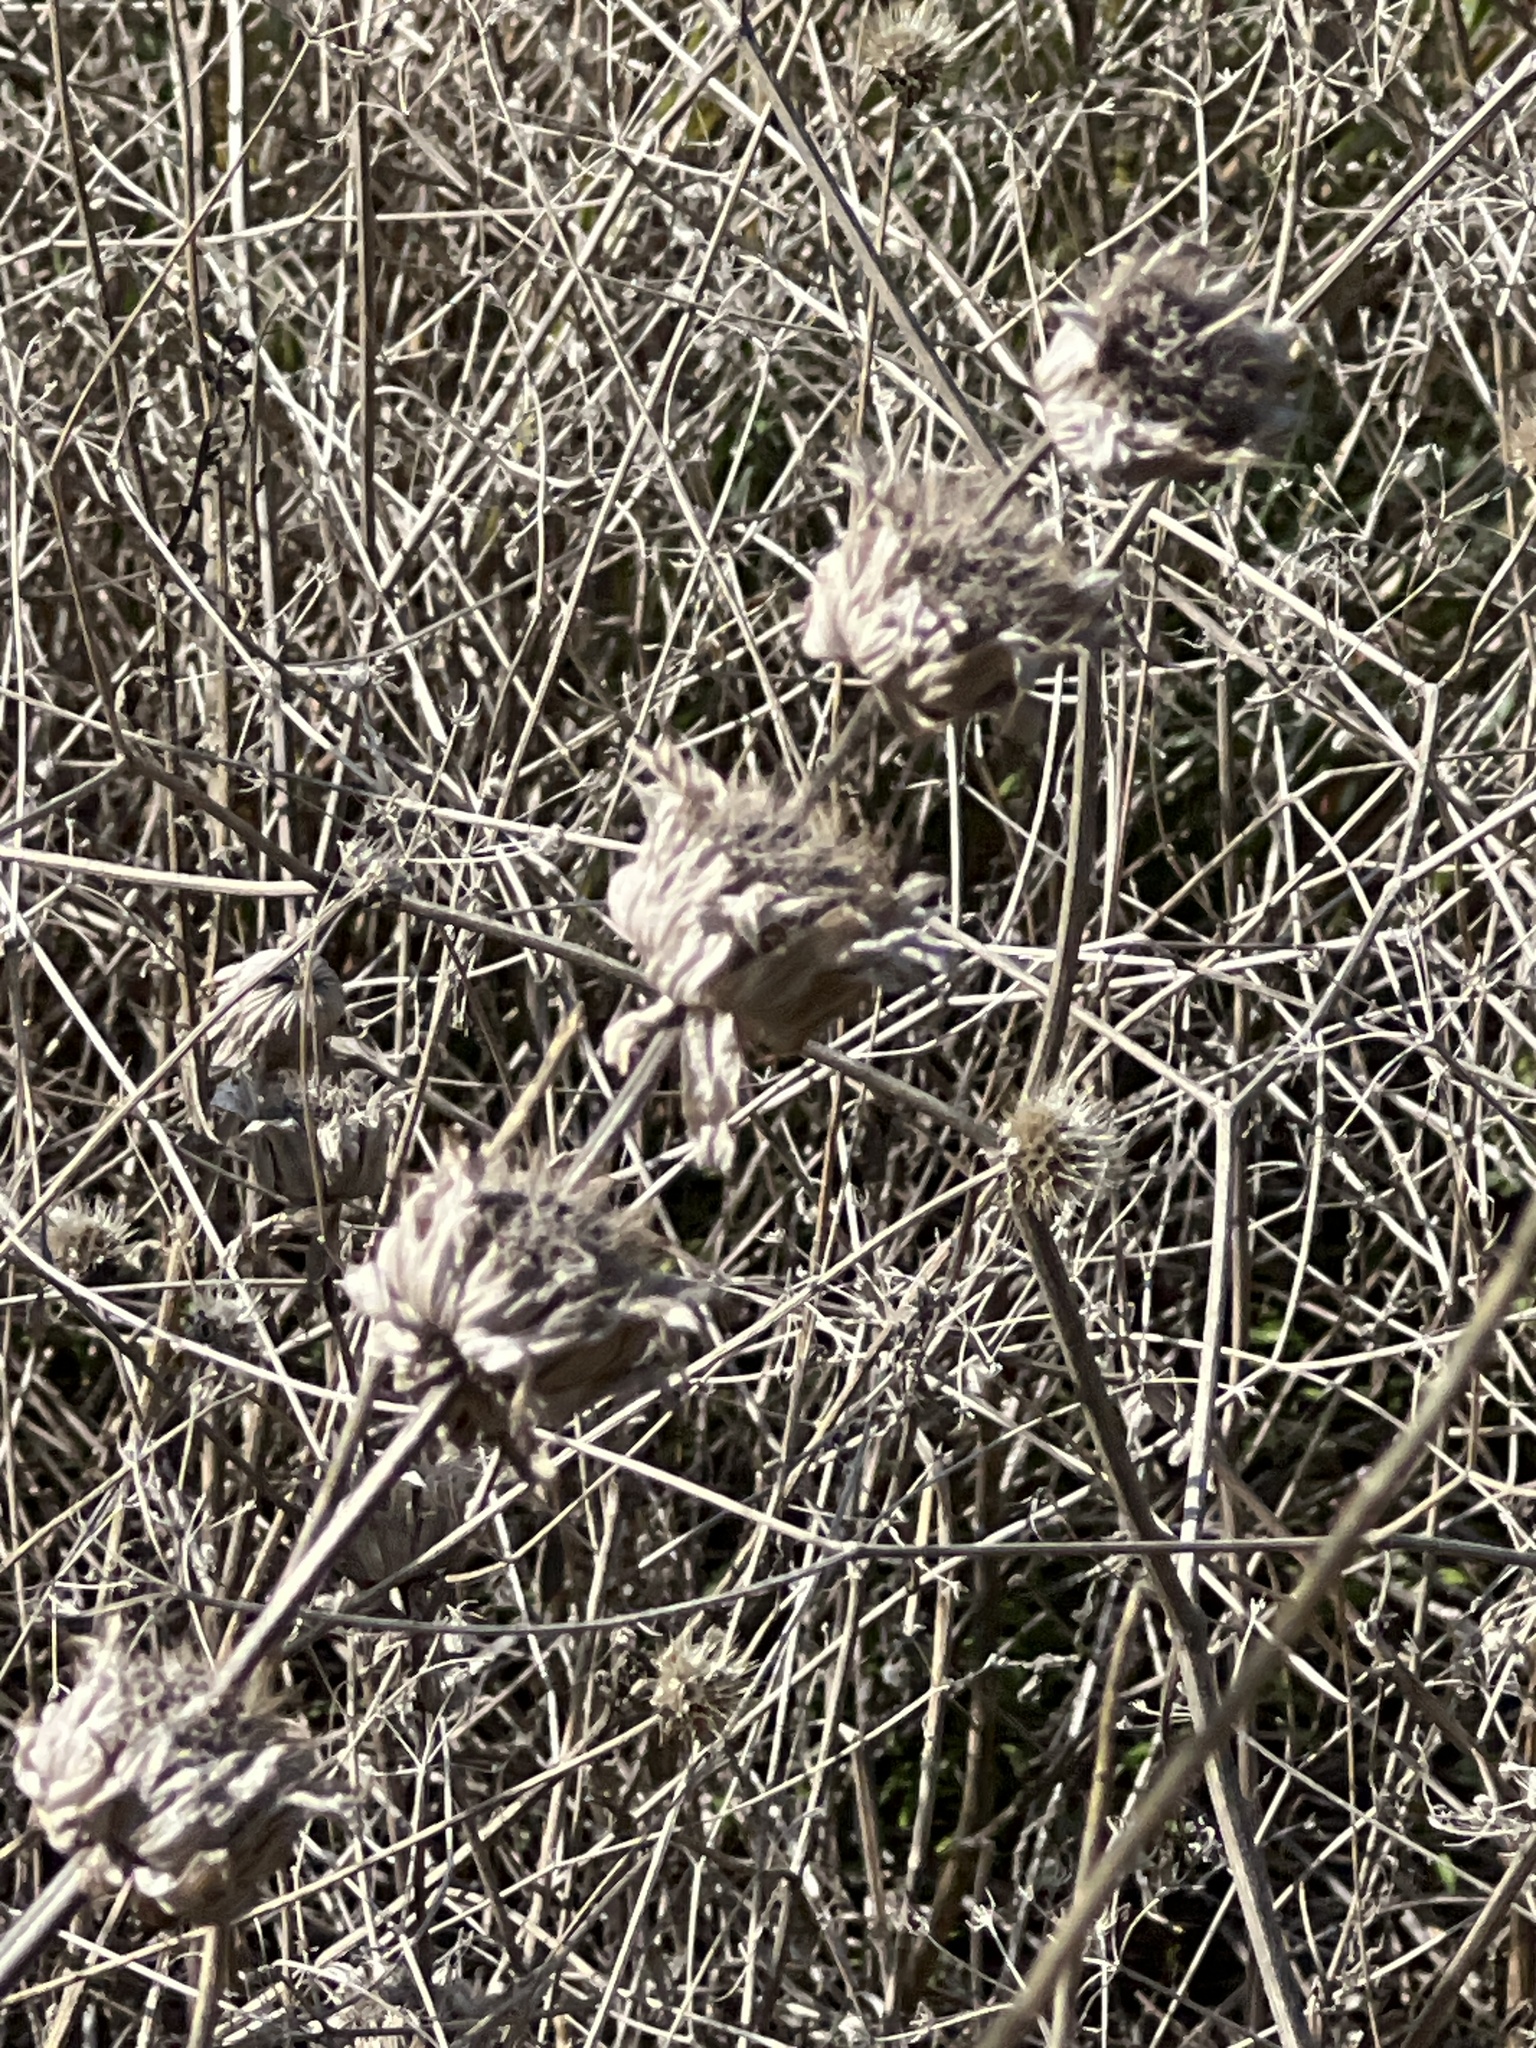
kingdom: Plantae
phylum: Tracheophyta
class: Magnoliopsida
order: Lamiales
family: Lamiaceae
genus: Monarda
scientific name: Monarda citriodora
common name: Lemon beebalm
